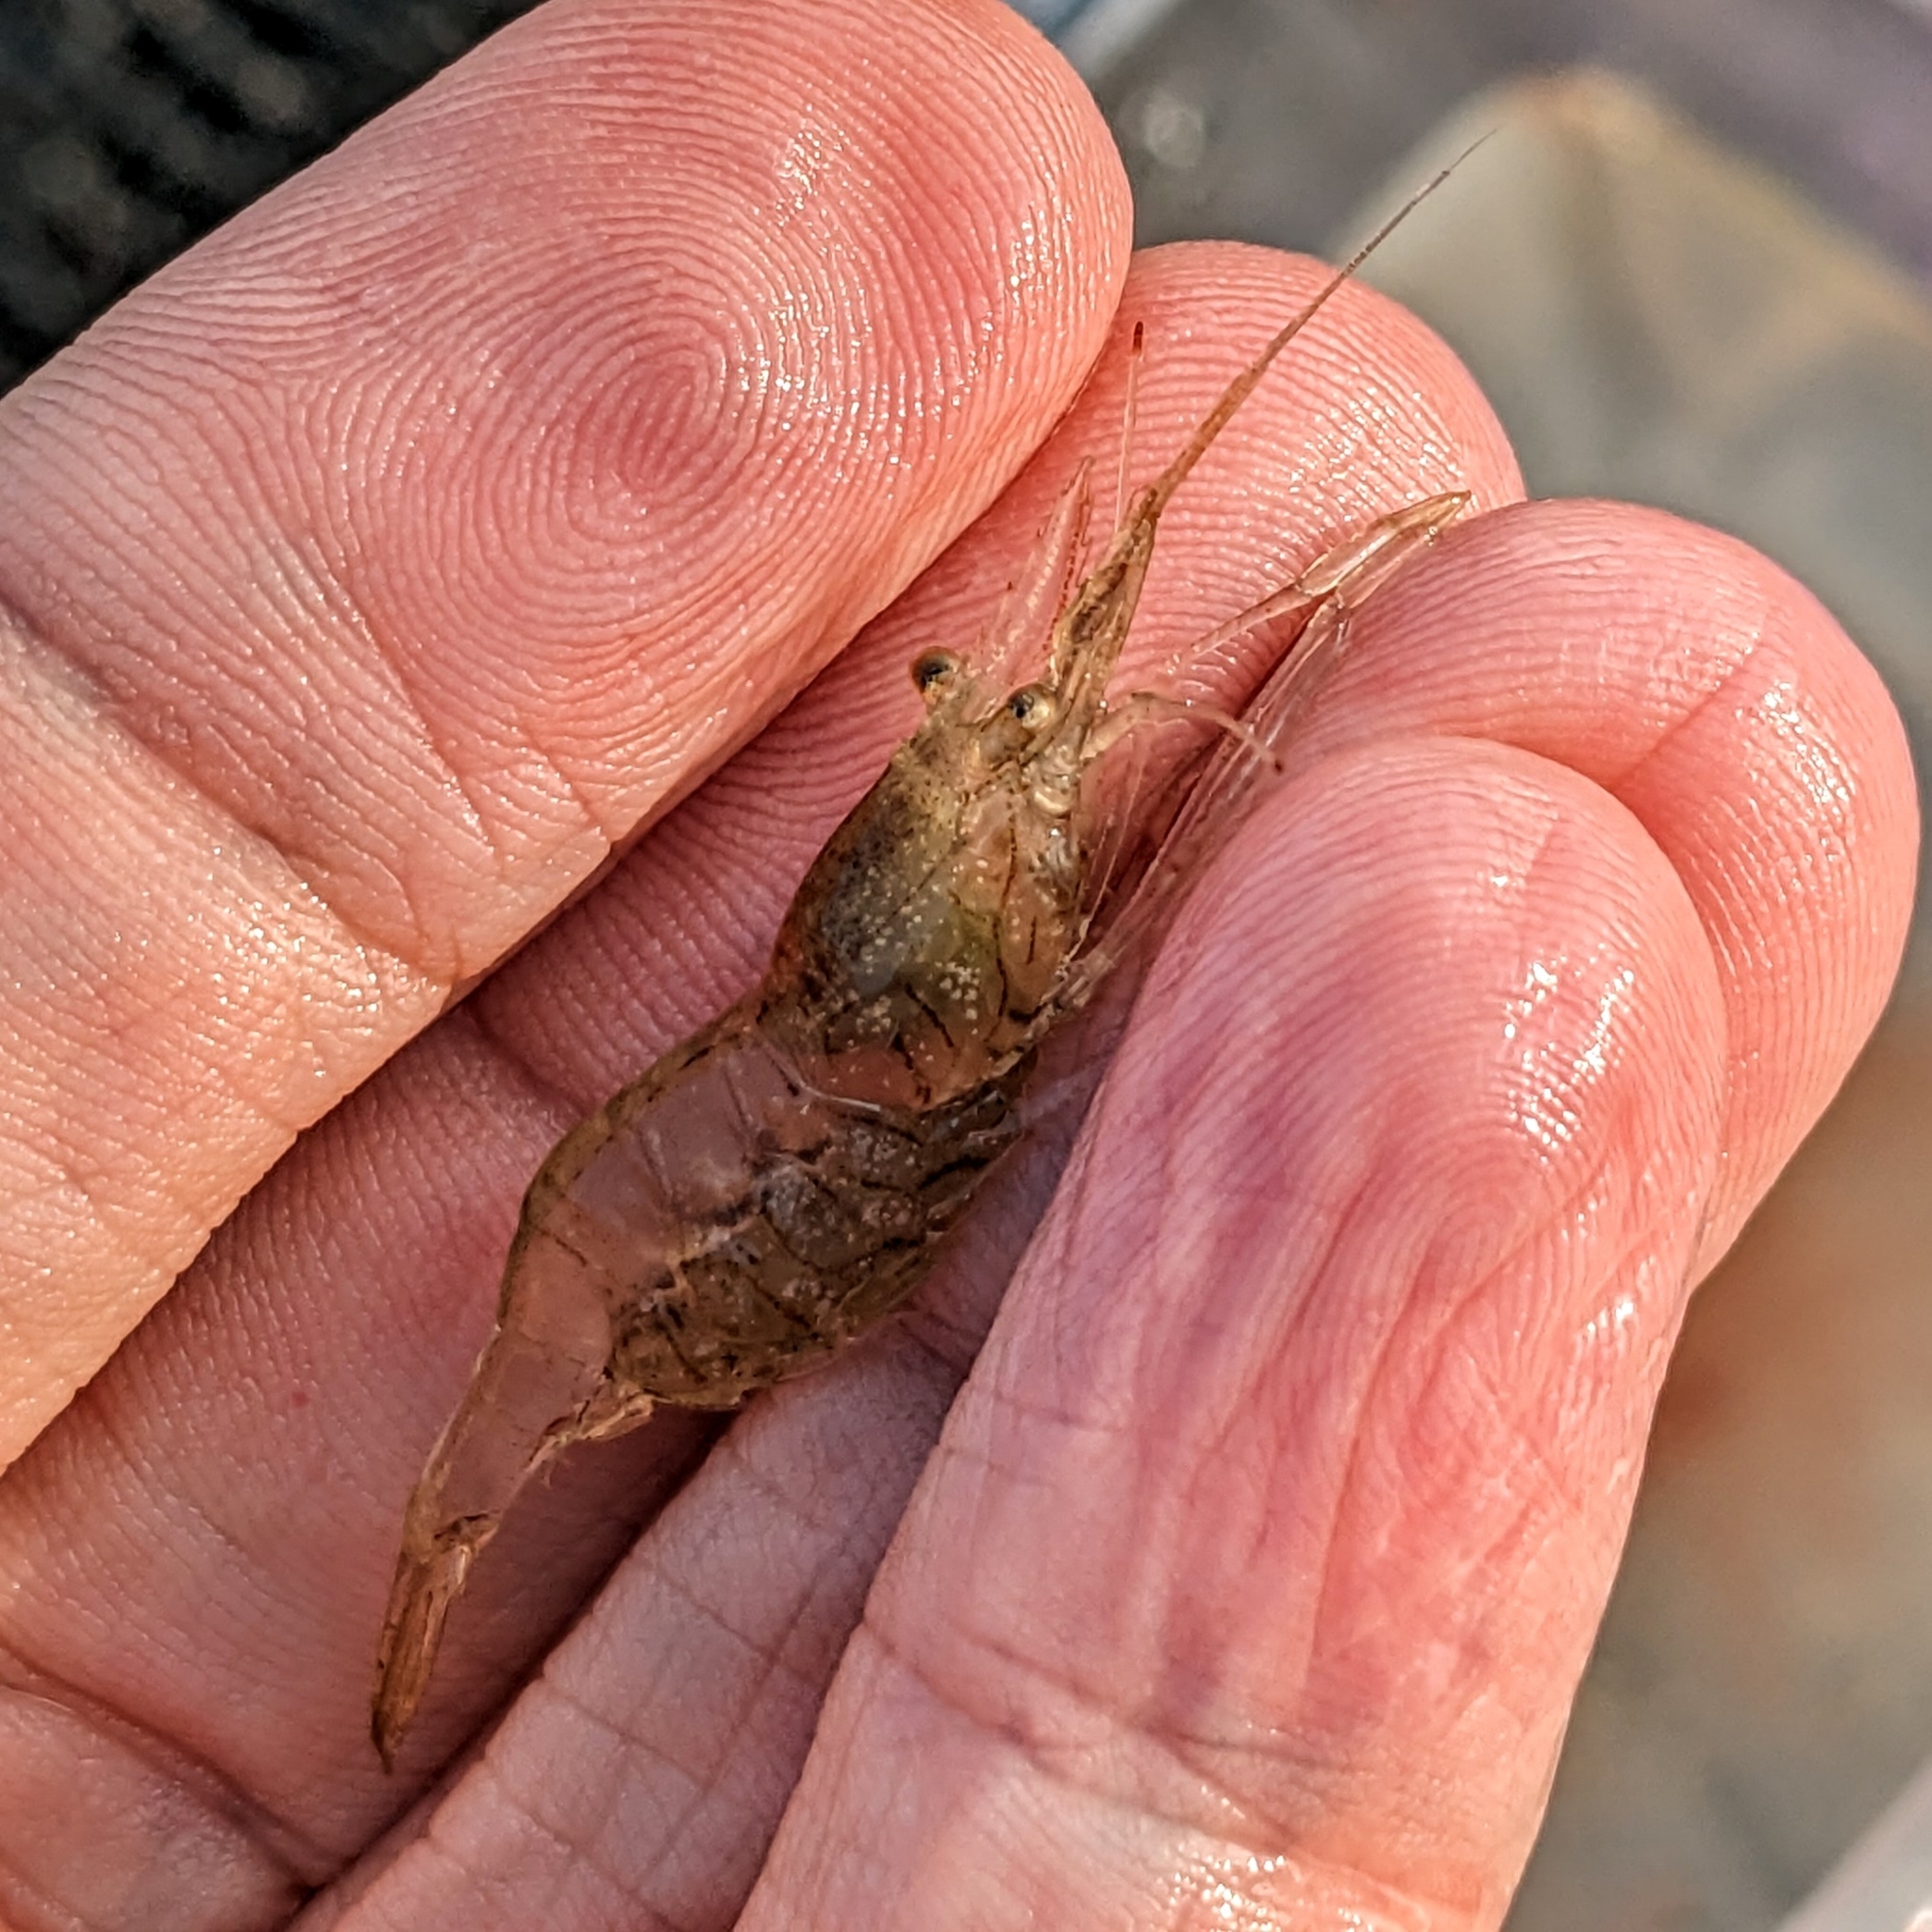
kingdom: Animalia
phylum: Arthropoda
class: Malacostraca
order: Decapoda
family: Palaemonidae
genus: Palaemon
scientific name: Palaemon paludosus
